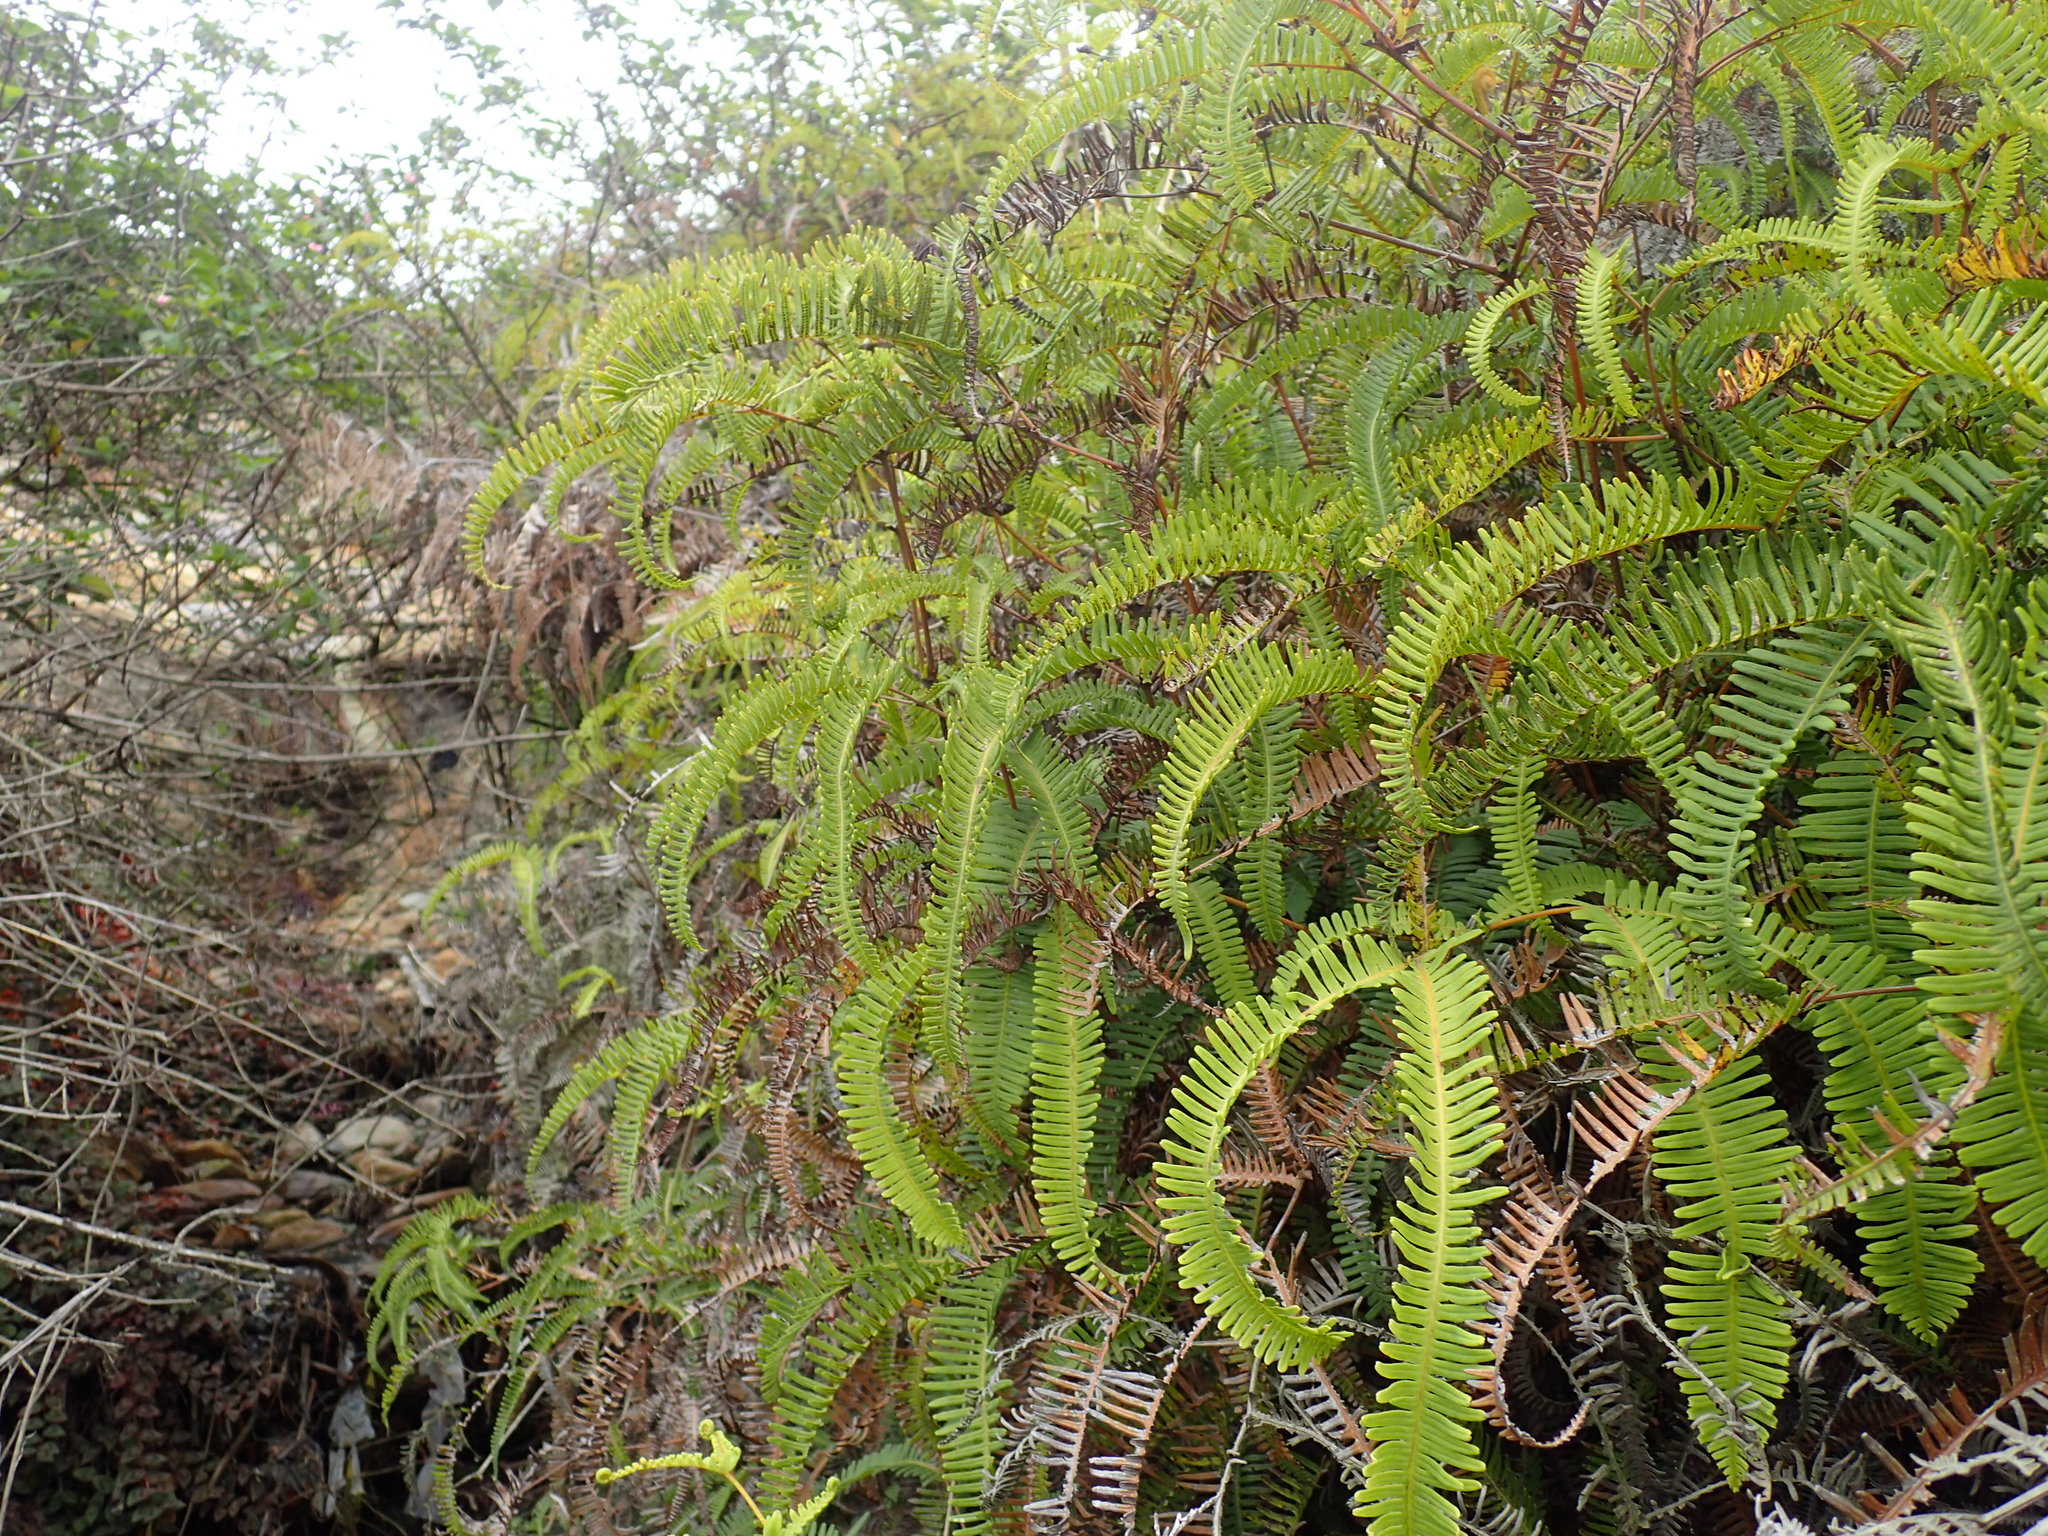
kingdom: Plantae
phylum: Tracheophyta
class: Polypodiopsida
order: Gleicheniales
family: Gleicheniaceae
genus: Dicranopteris
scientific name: Dicranopteris linearis
